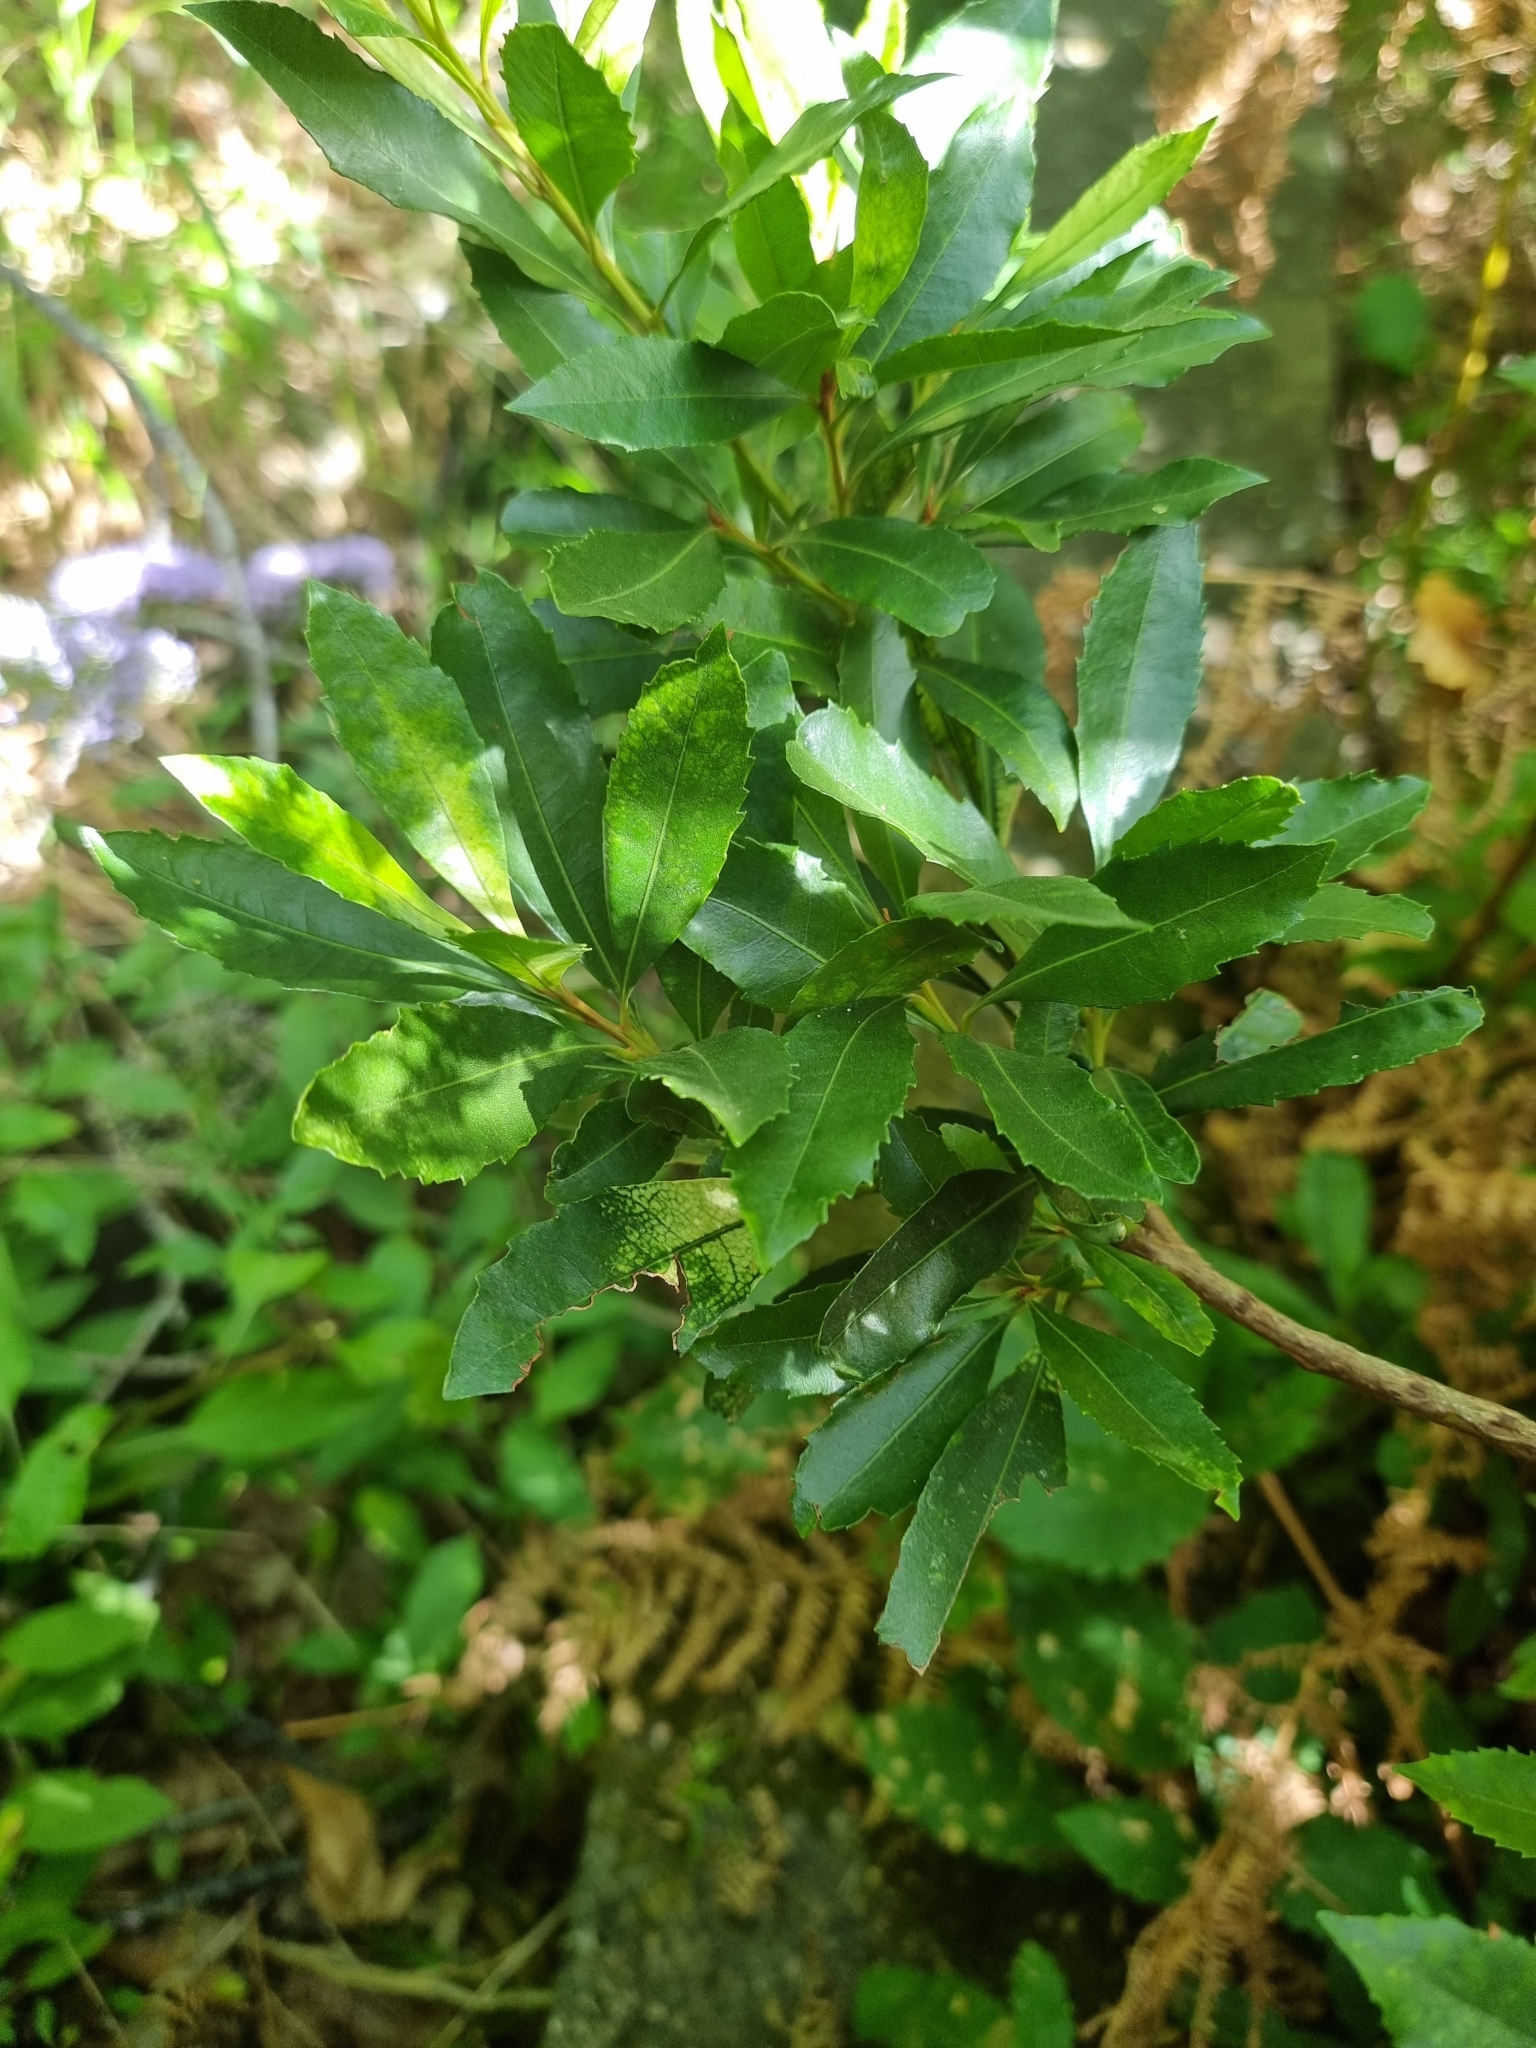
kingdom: Plantae
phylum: Tracheophyta
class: Magnoliopsida
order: Fagales
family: Myricaceae
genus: Morella
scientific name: Morella faya
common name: Firetree
